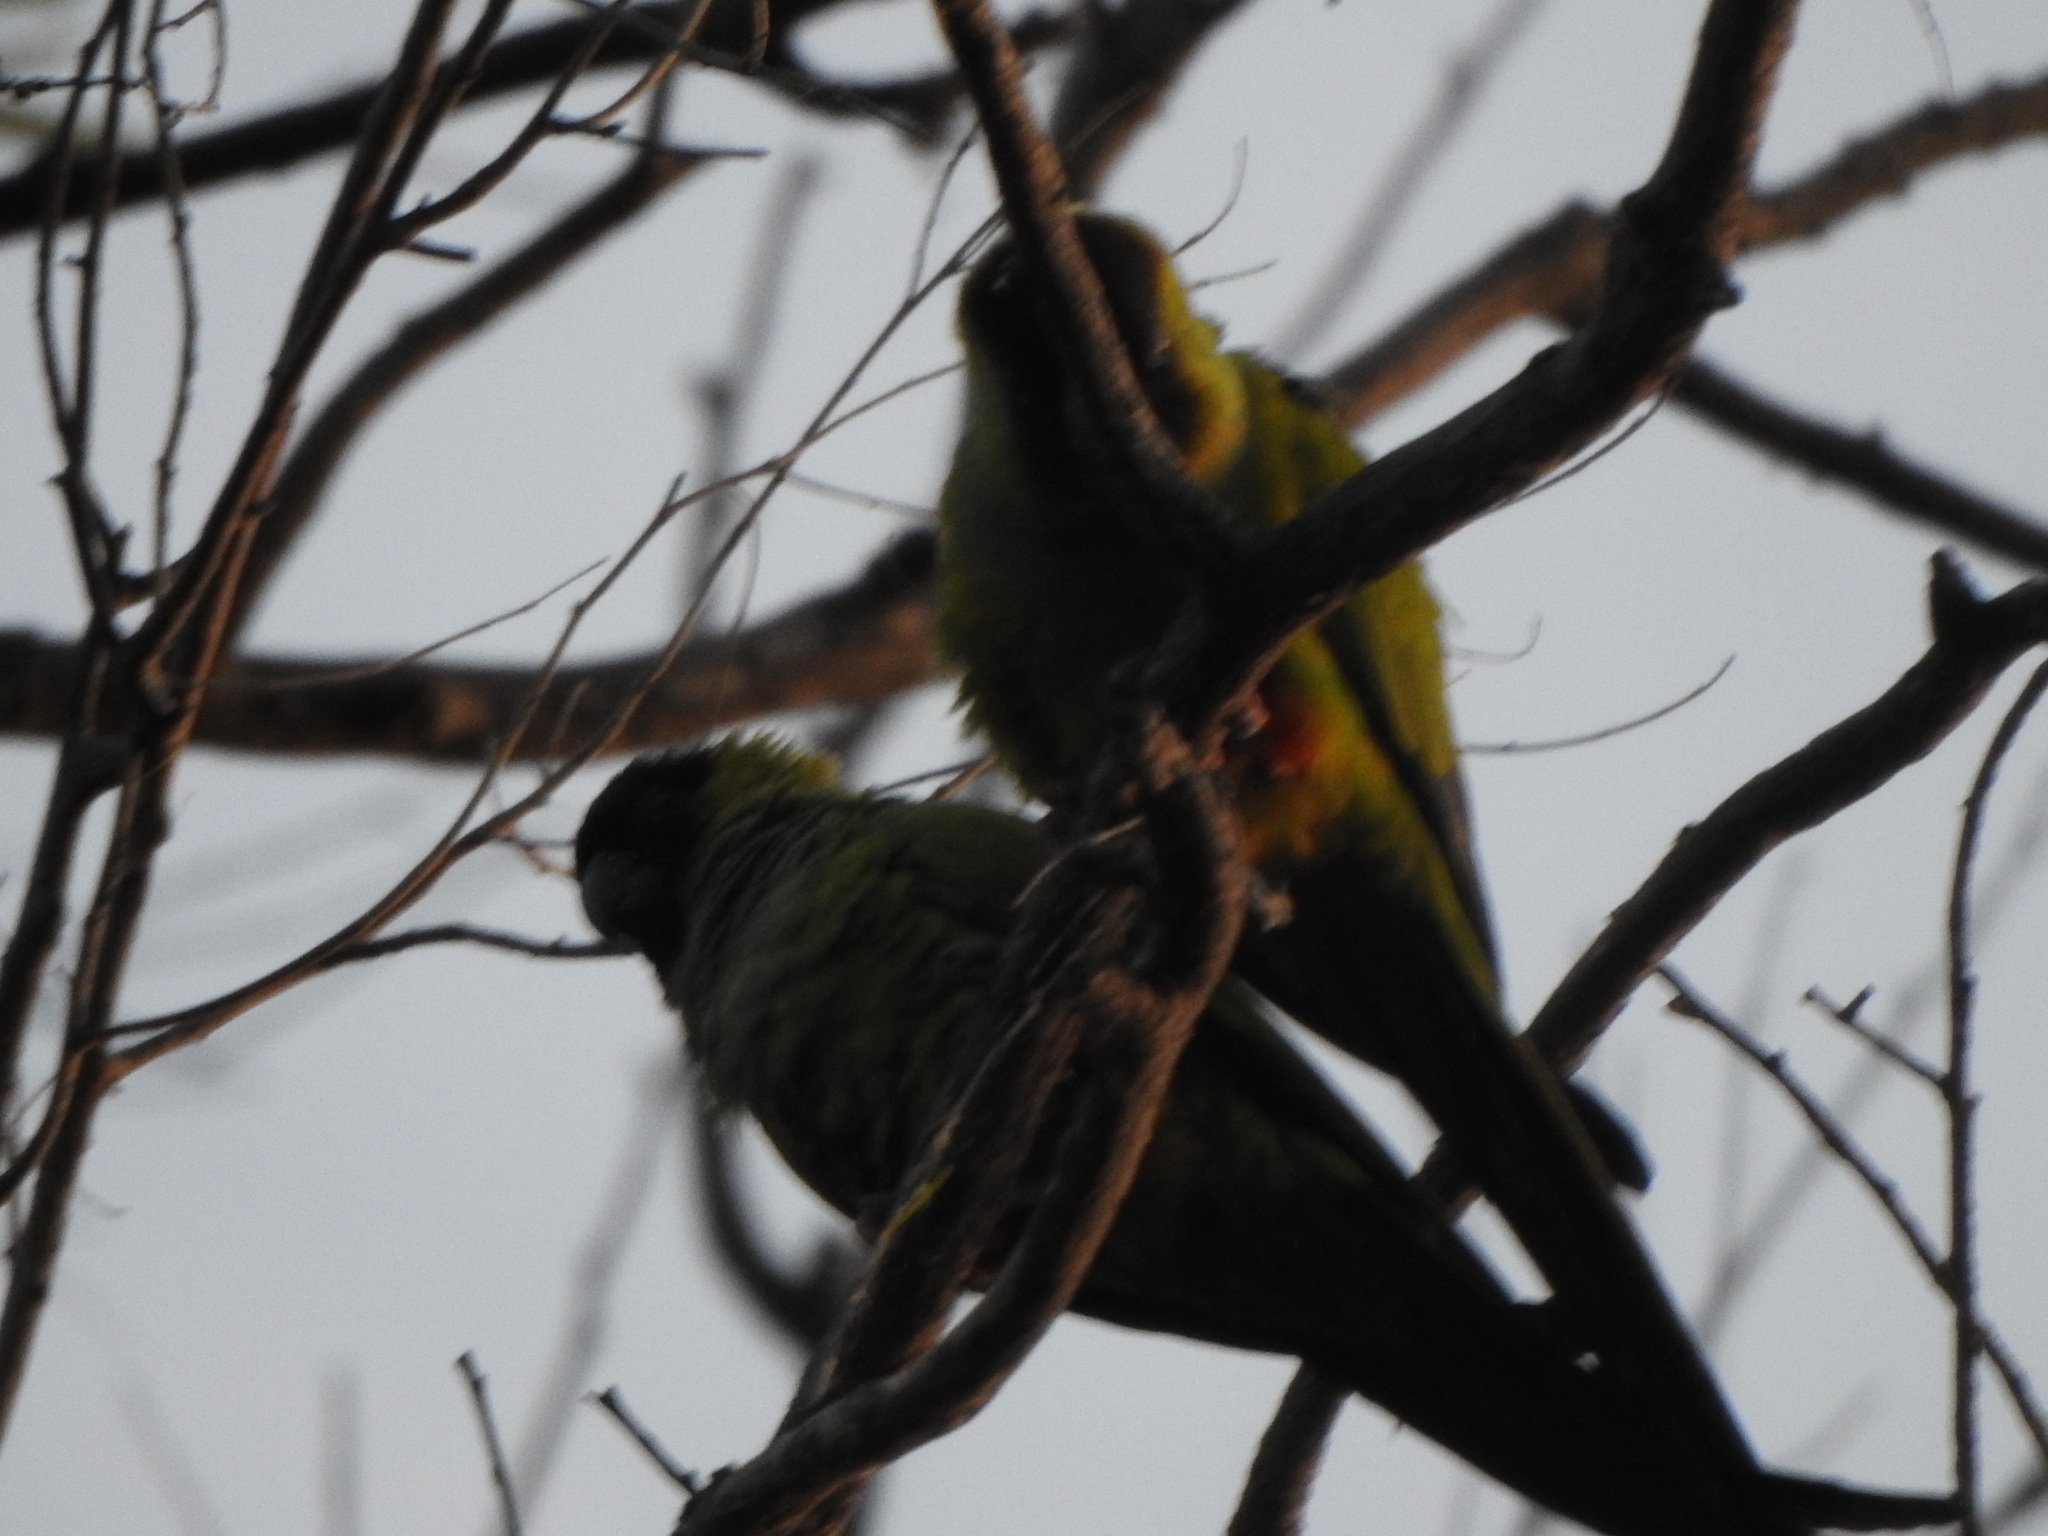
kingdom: Animalia
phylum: Chordata
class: Aves
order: Psittaciformes
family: Psittacidae
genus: Nandayus
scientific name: Nandayus nenday
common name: Nanday parakeet
